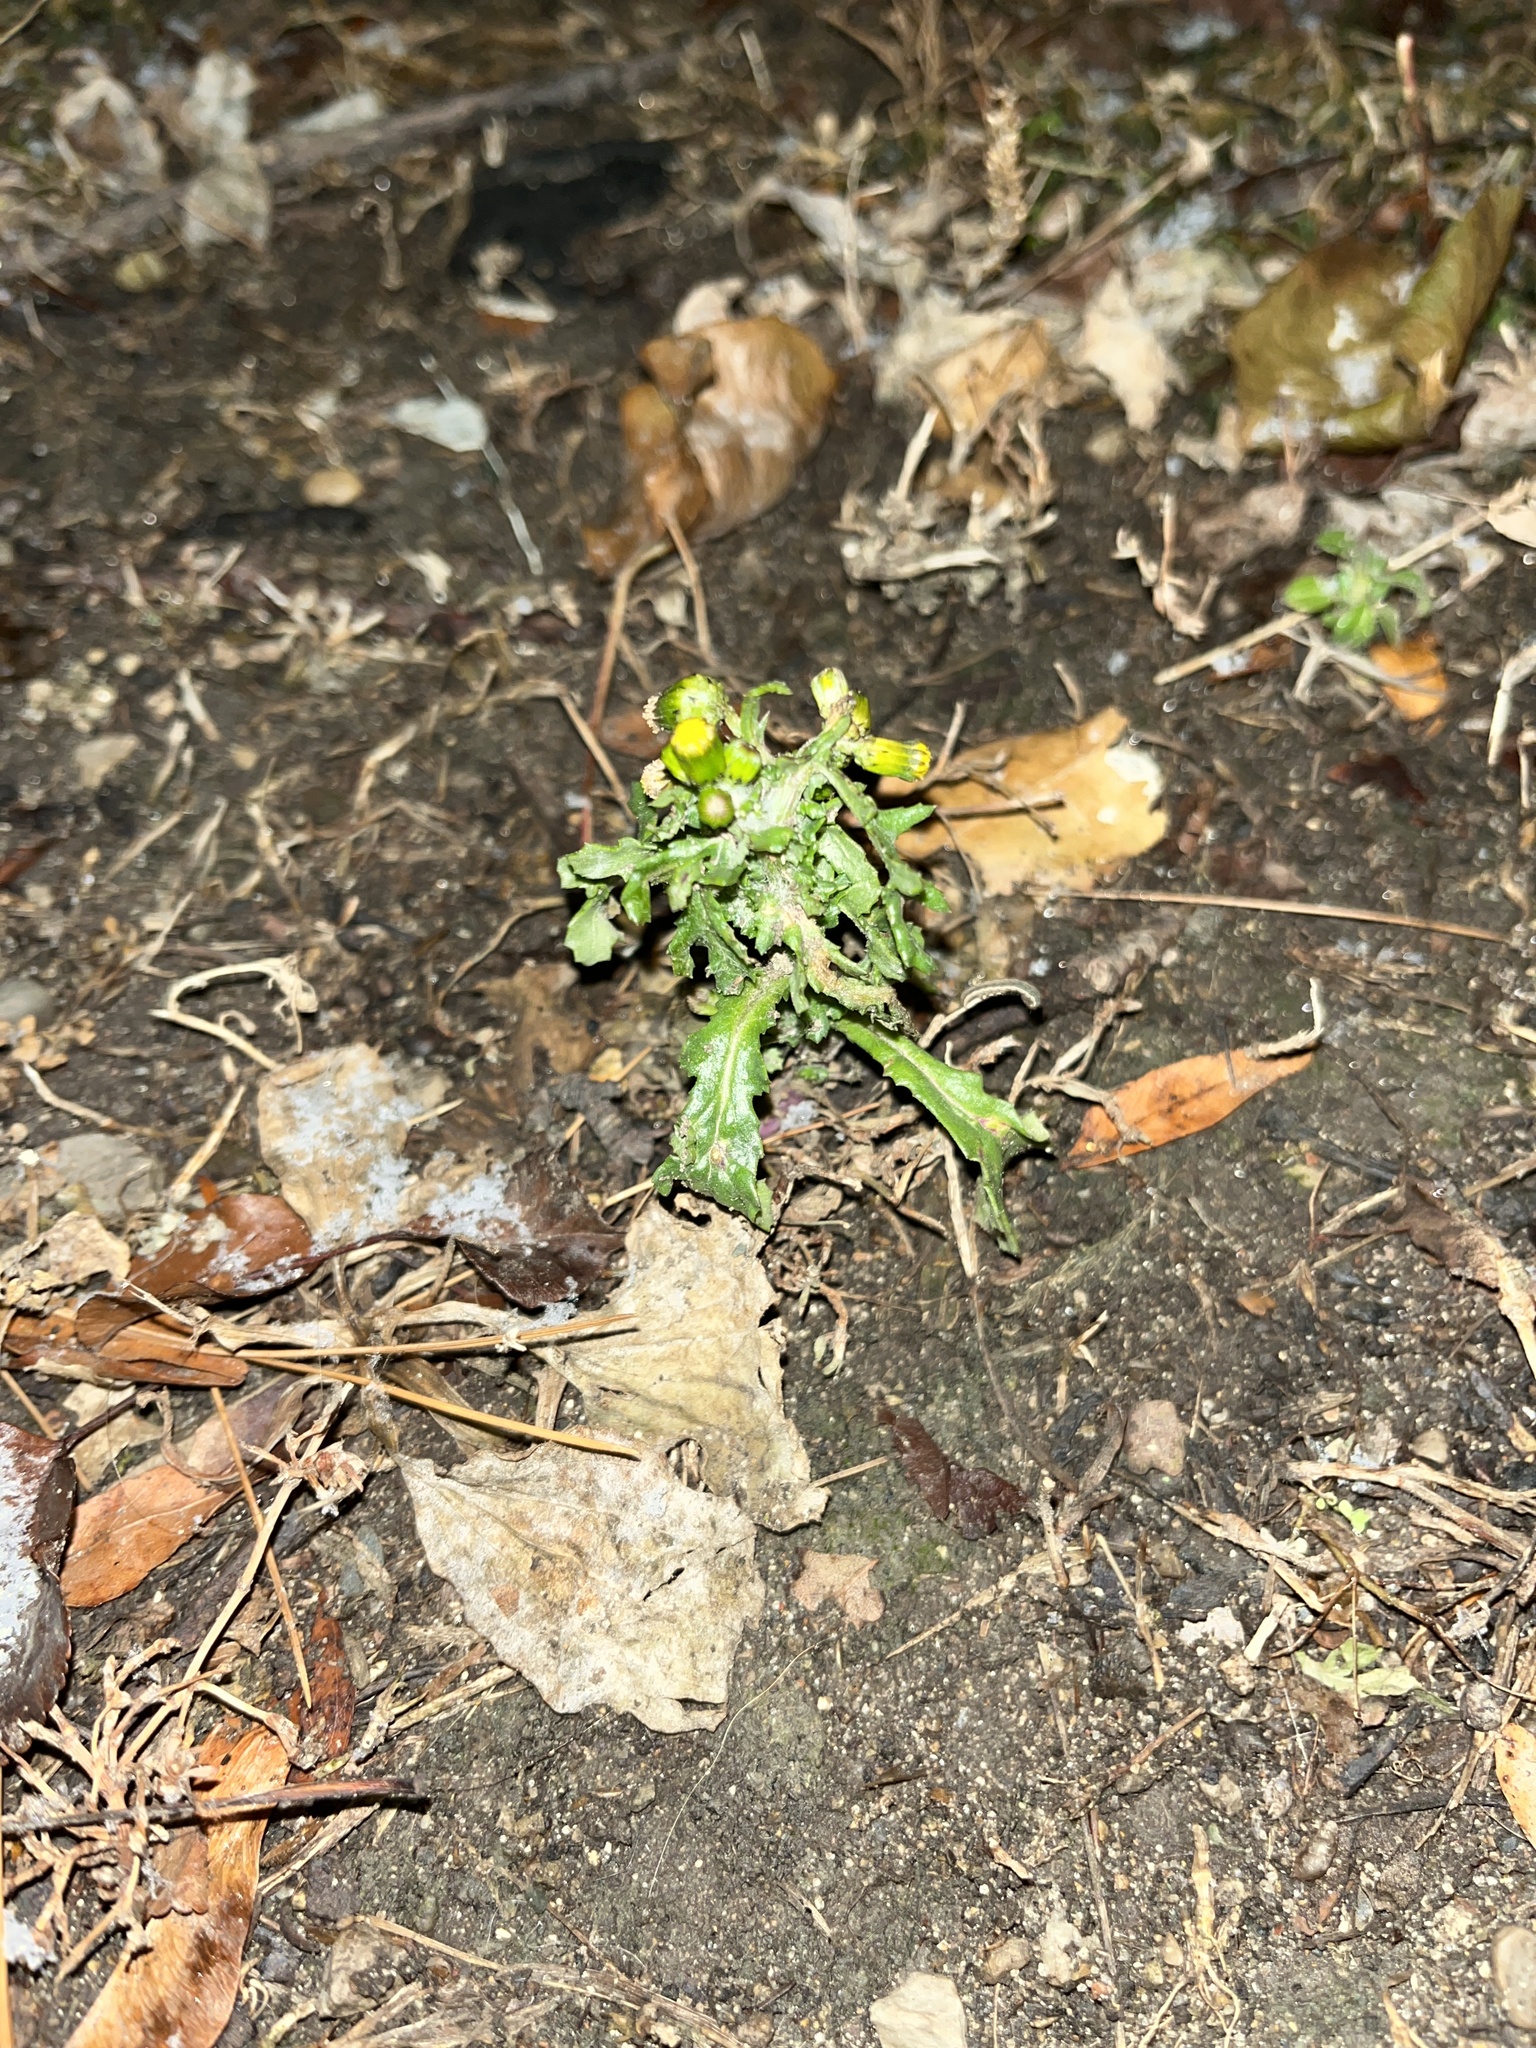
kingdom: Plantae
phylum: Tracheophyta
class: Magnoliopsida
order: Asterales
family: Asteraceae
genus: Senecio
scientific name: Senecio vulgaris
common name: Old-man-in-the-spring
